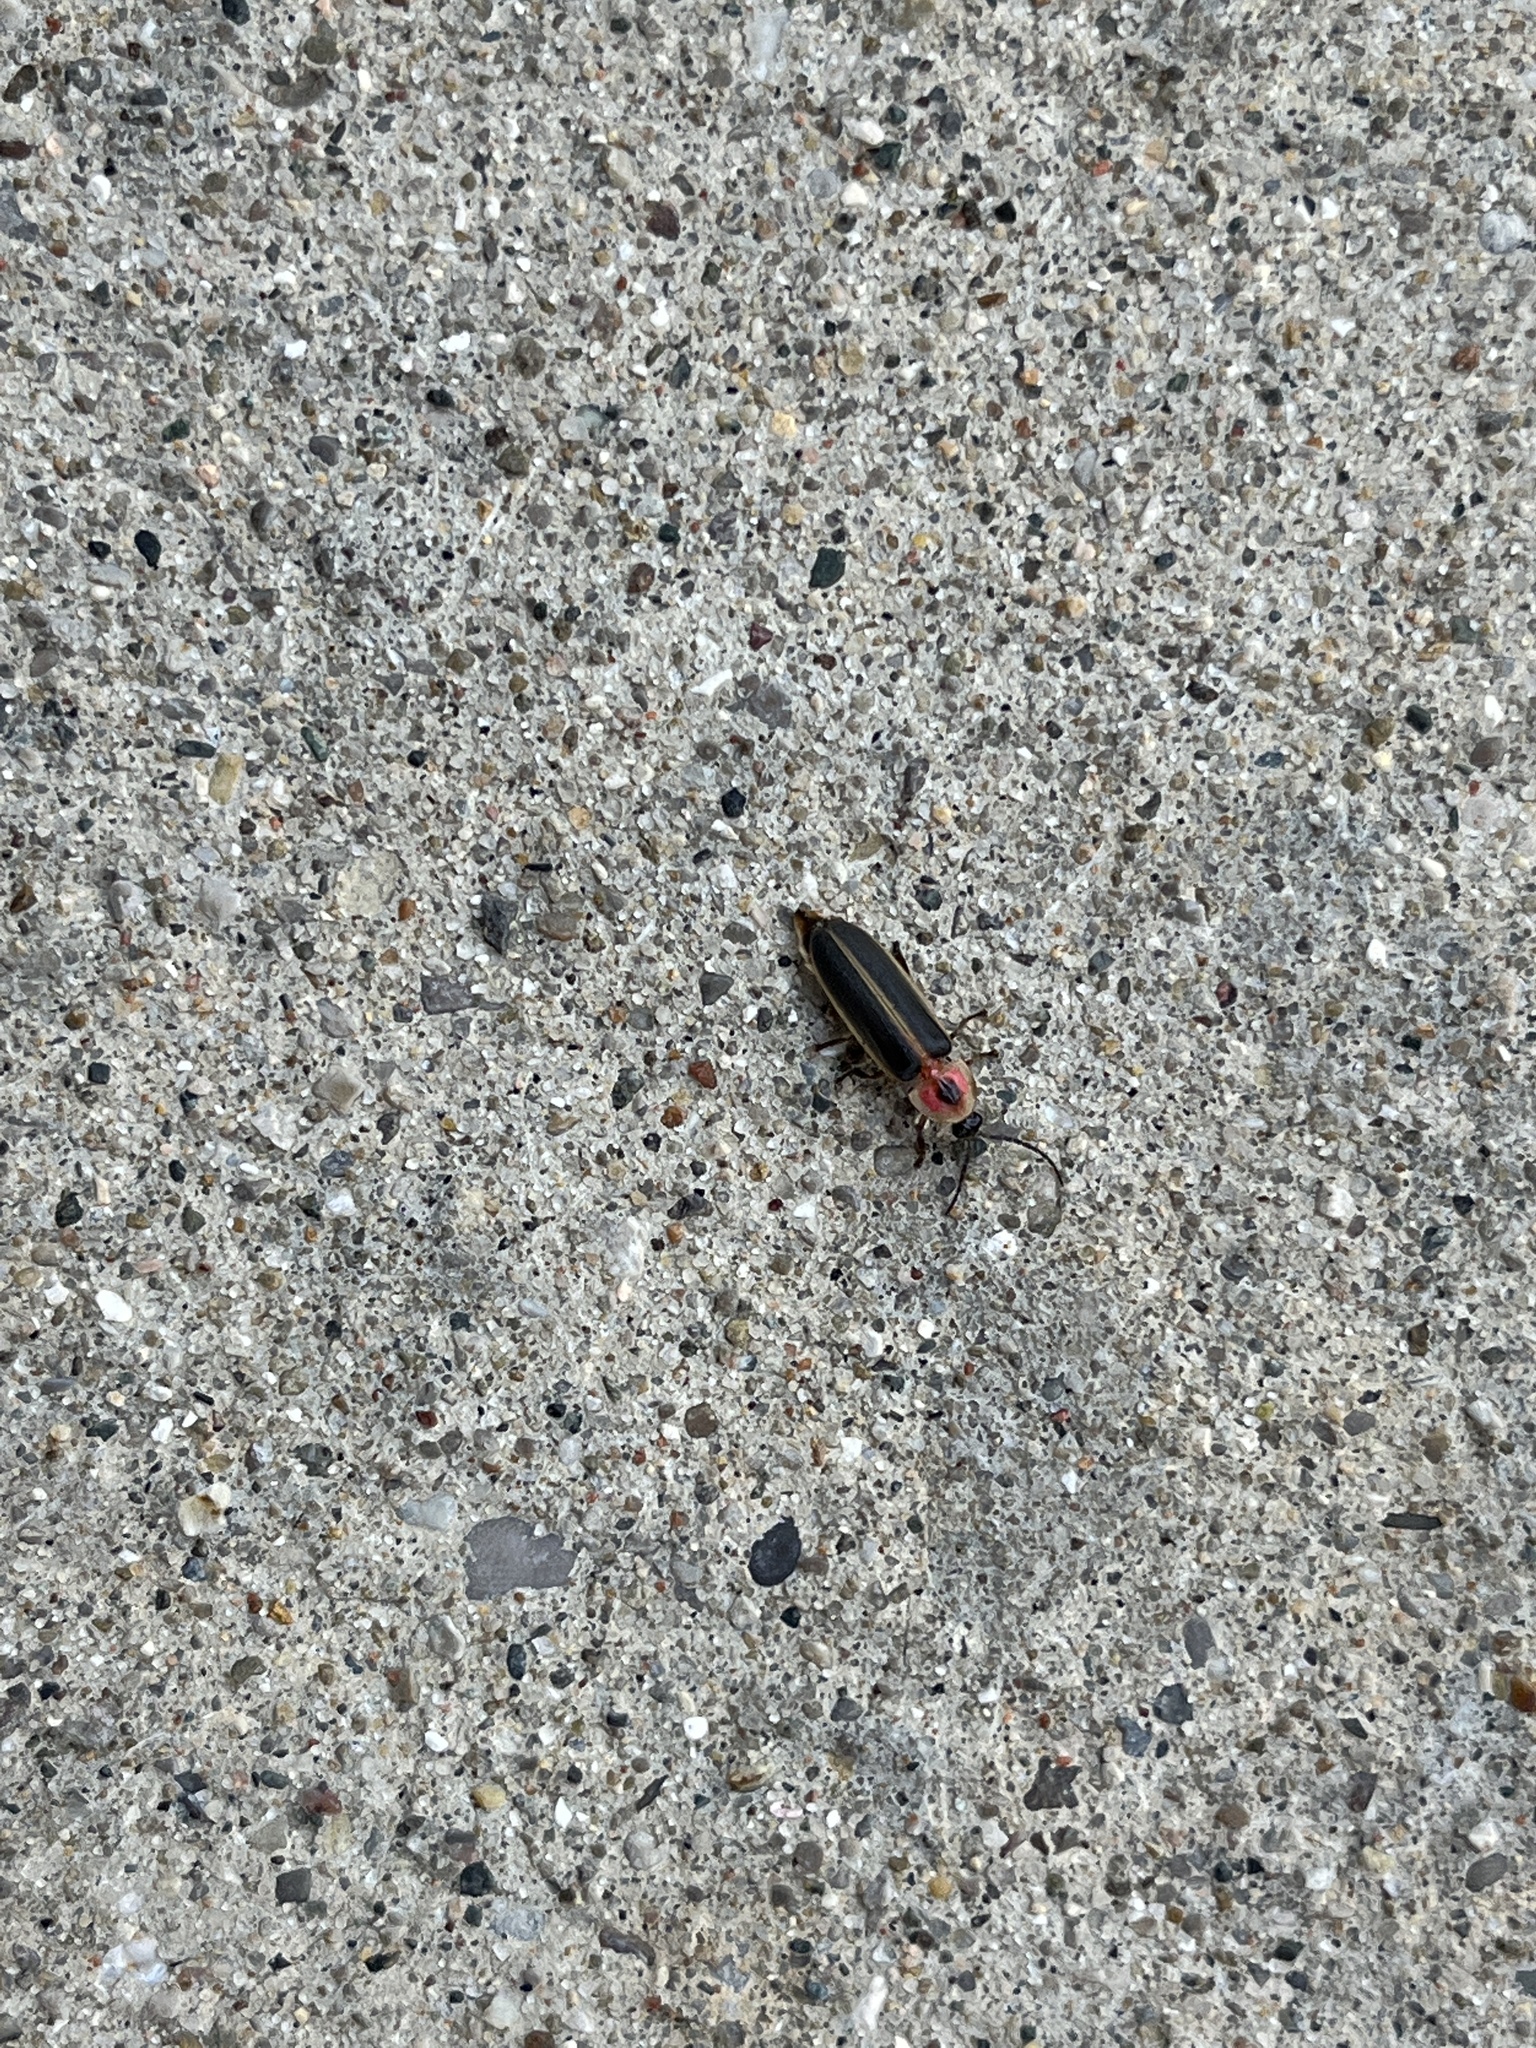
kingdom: Animalia
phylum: Arthropoda
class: Insecta
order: Coleoptera
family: Lampyridae
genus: Photinus
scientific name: Photinus pyralis
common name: Big dipper firefly
